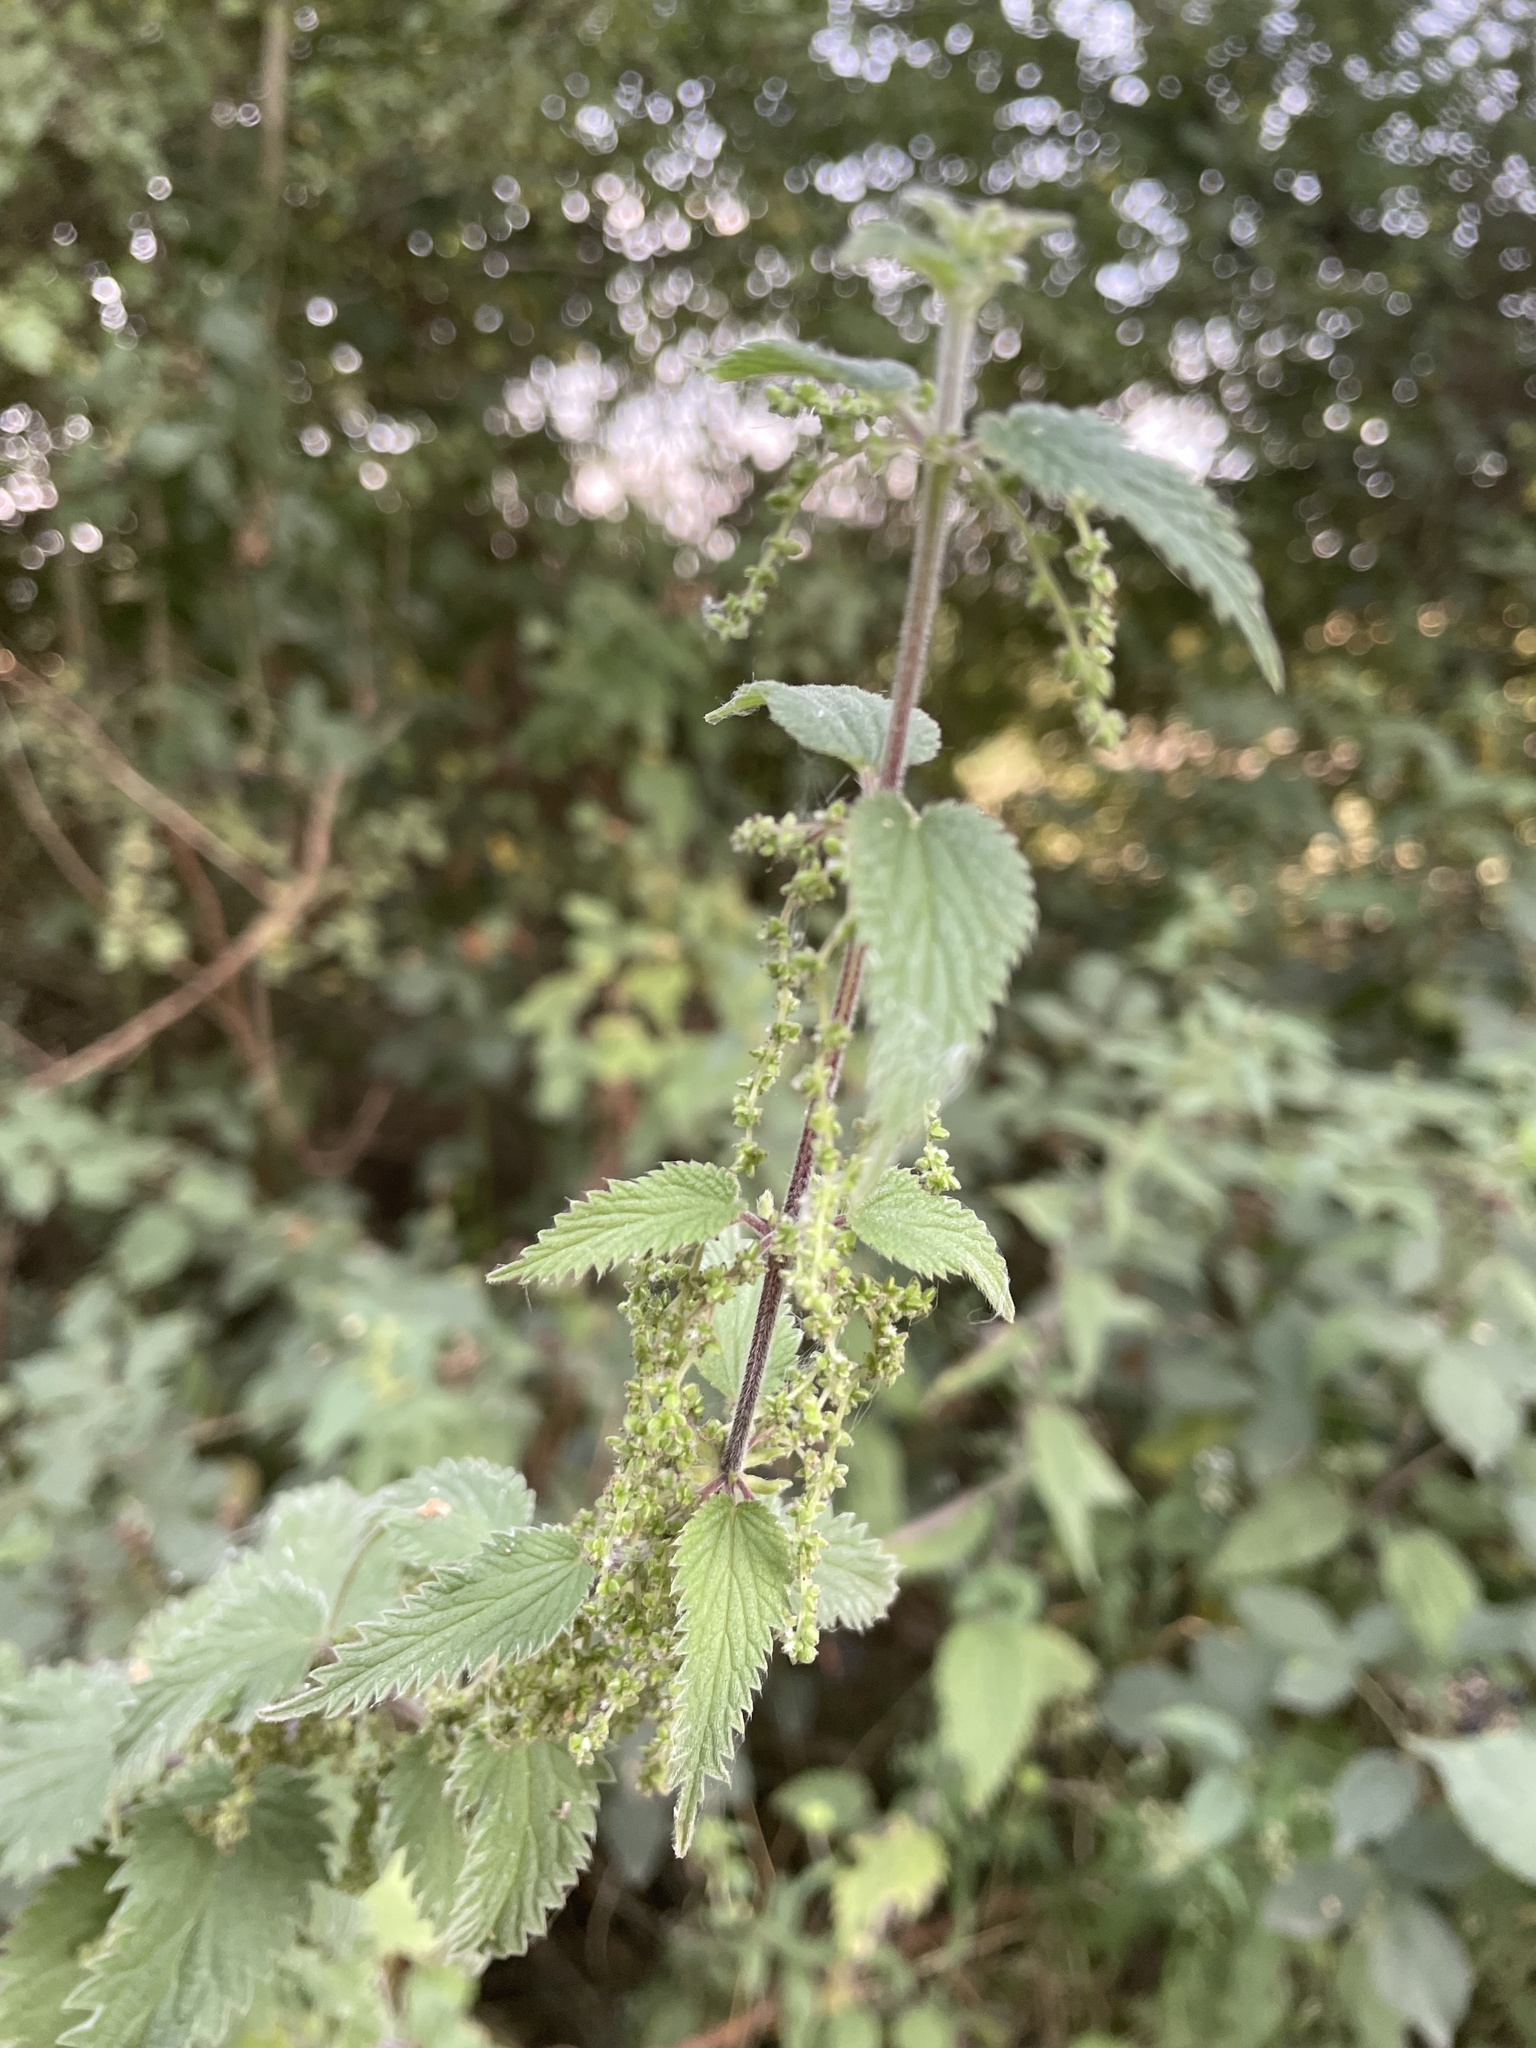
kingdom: Plantae
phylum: Tracheophyta
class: Magnoliopsida
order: Rosales
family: Urticaceae
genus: Urtica
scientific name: Urtica dioica
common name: Common nettle
